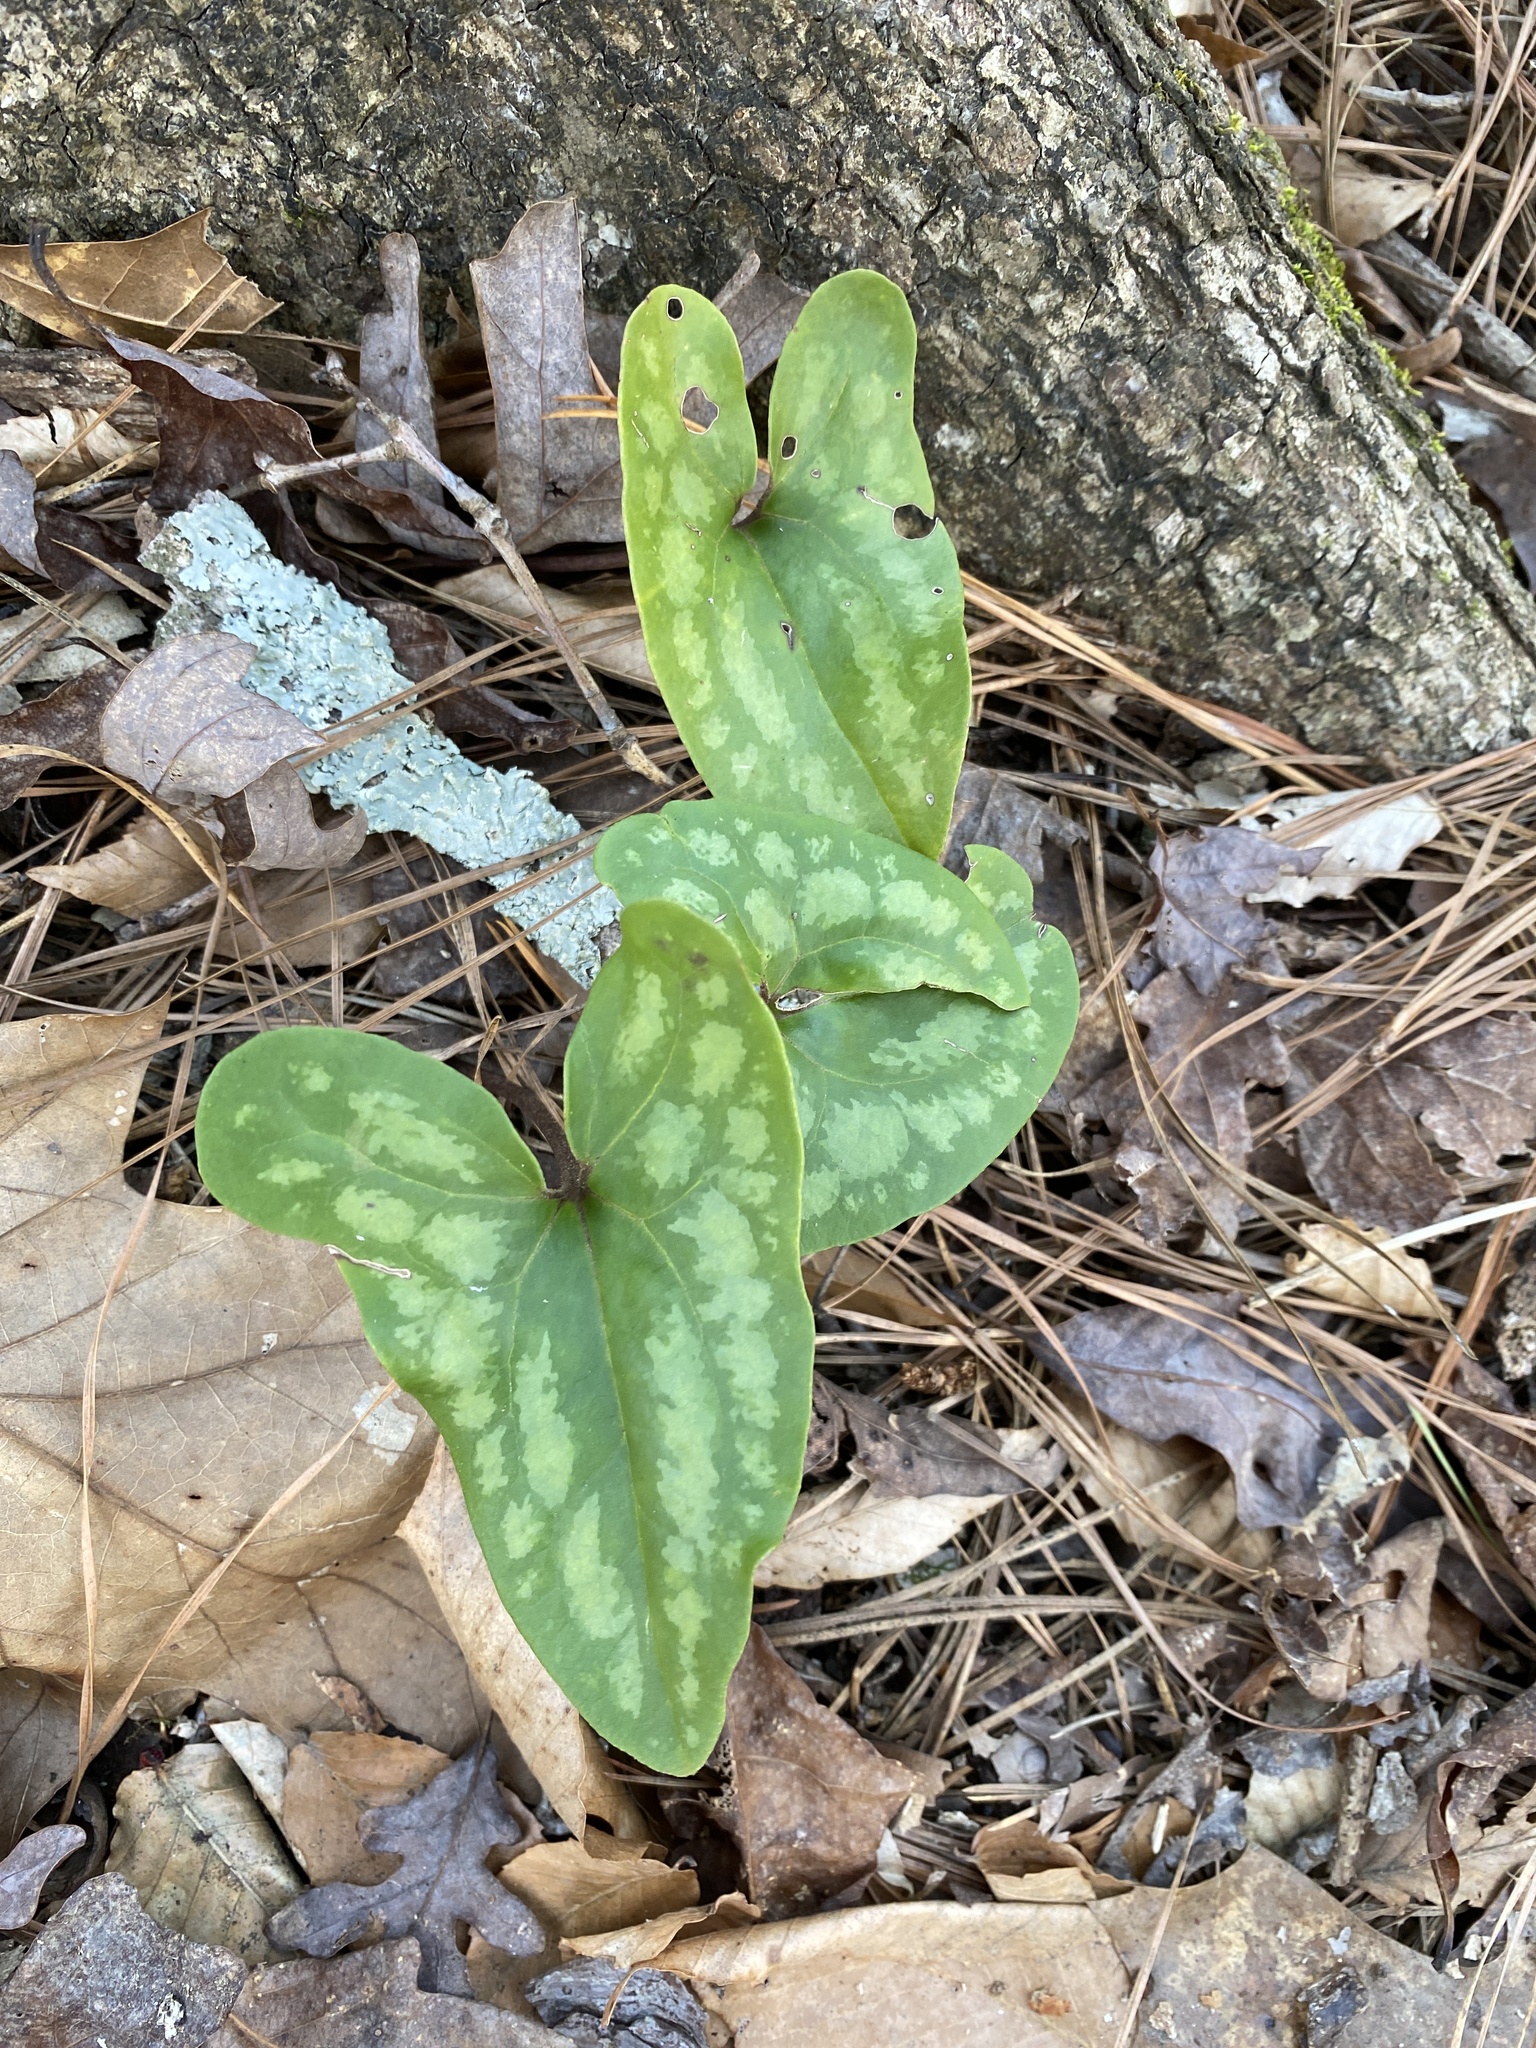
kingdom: Plantae
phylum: Tracheophyta
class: Magnoliopsida
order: Piperales
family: Aristolochiaceae
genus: Hexastylis
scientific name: Hexastylis arifolia
